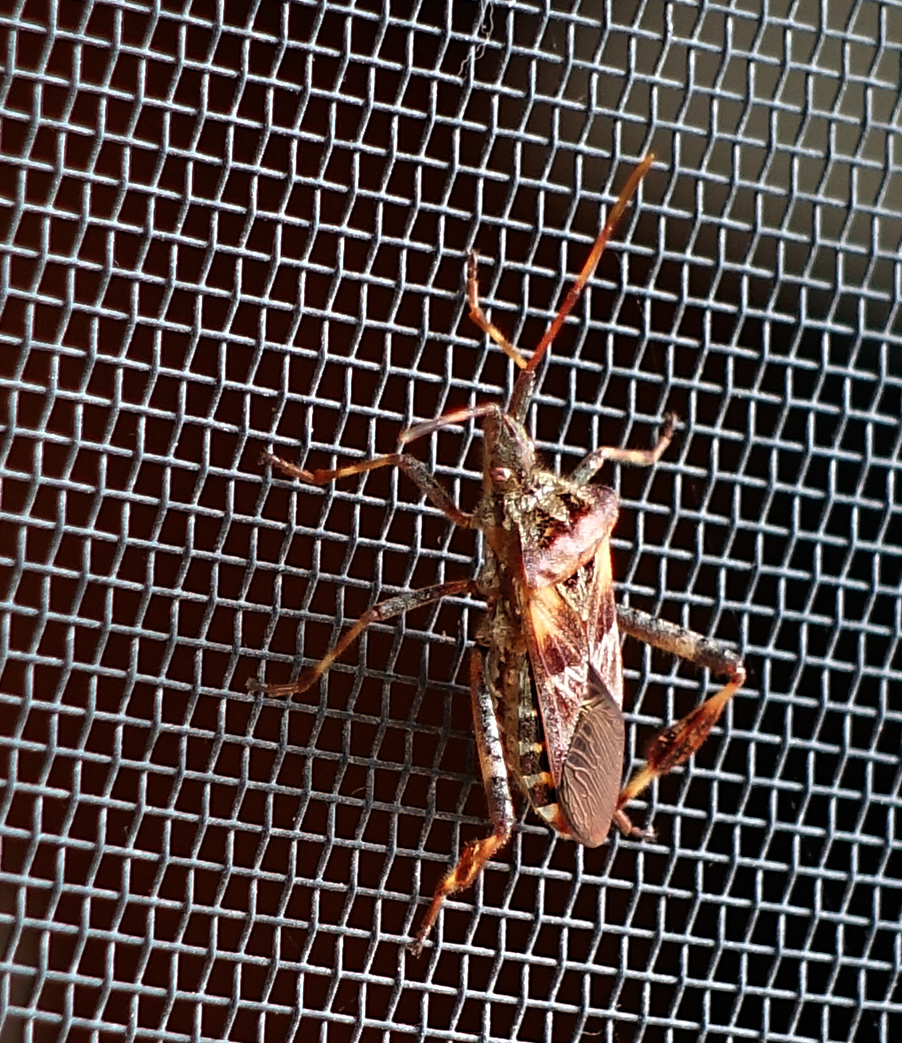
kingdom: Animalia
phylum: Arthropoda
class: Insecta
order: Hemiptera
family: Coreidae
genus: Leptoglossus
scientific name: Leptoglossus occidentalis
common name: Western conifer-seed bug
